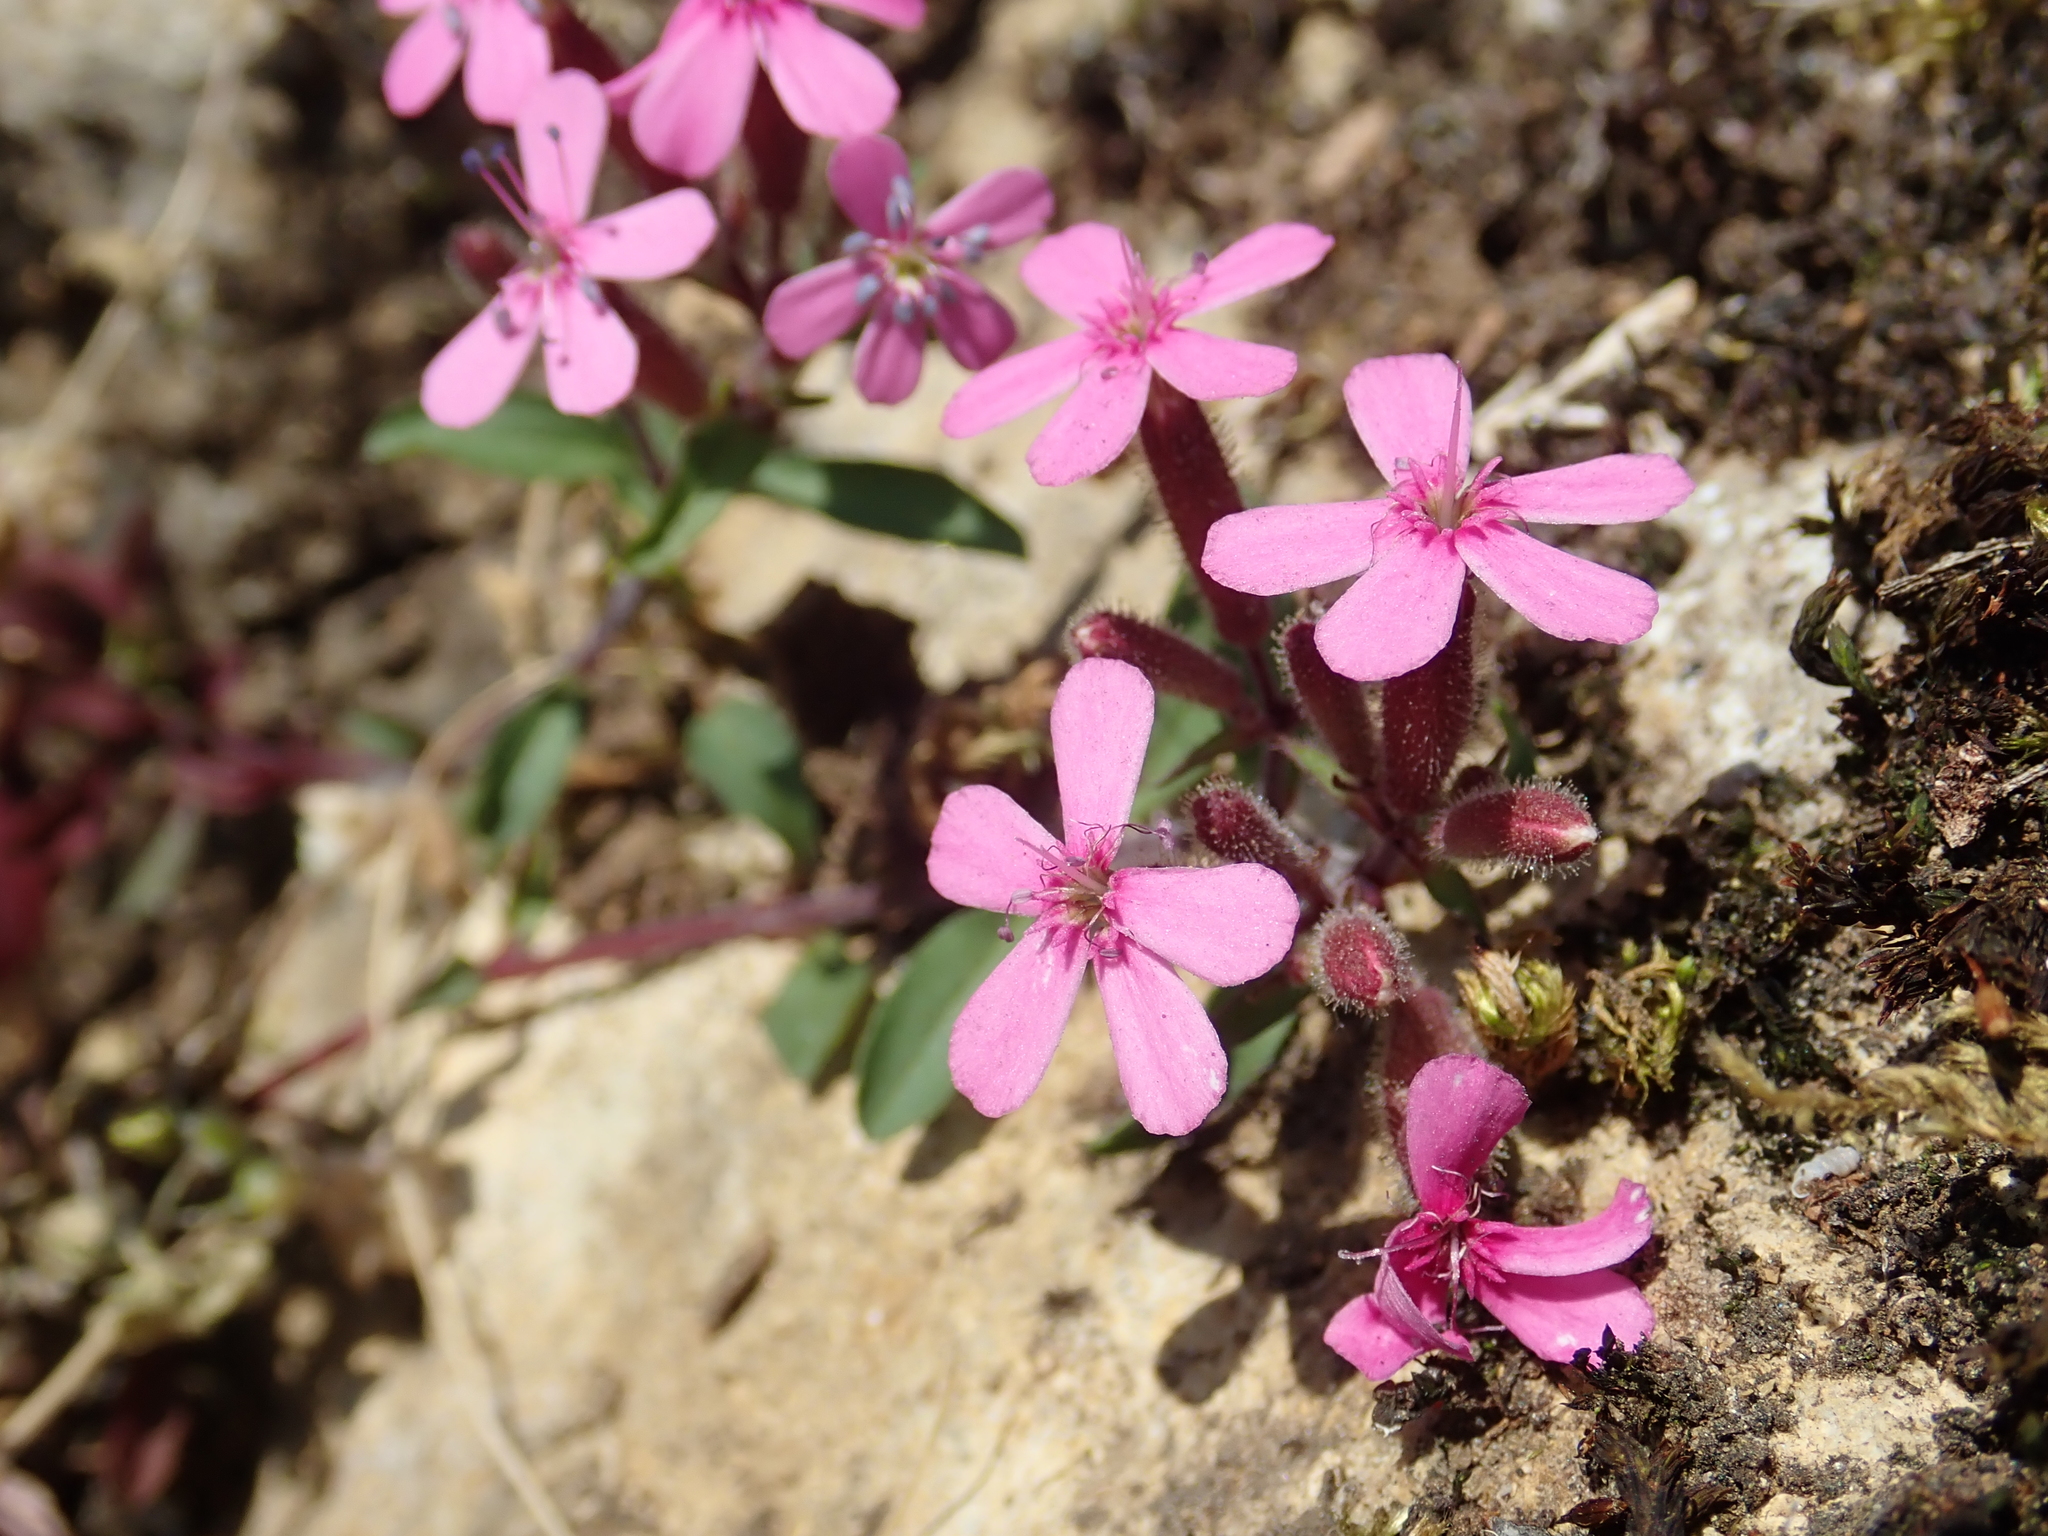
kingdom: Plantae
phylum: Tracheophyta
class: Magnoliopsida
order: Caryophyllales
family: Caryophyllaceae
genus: Saponaria
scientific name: Saponaria ocymoides
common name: Rock soapwort
